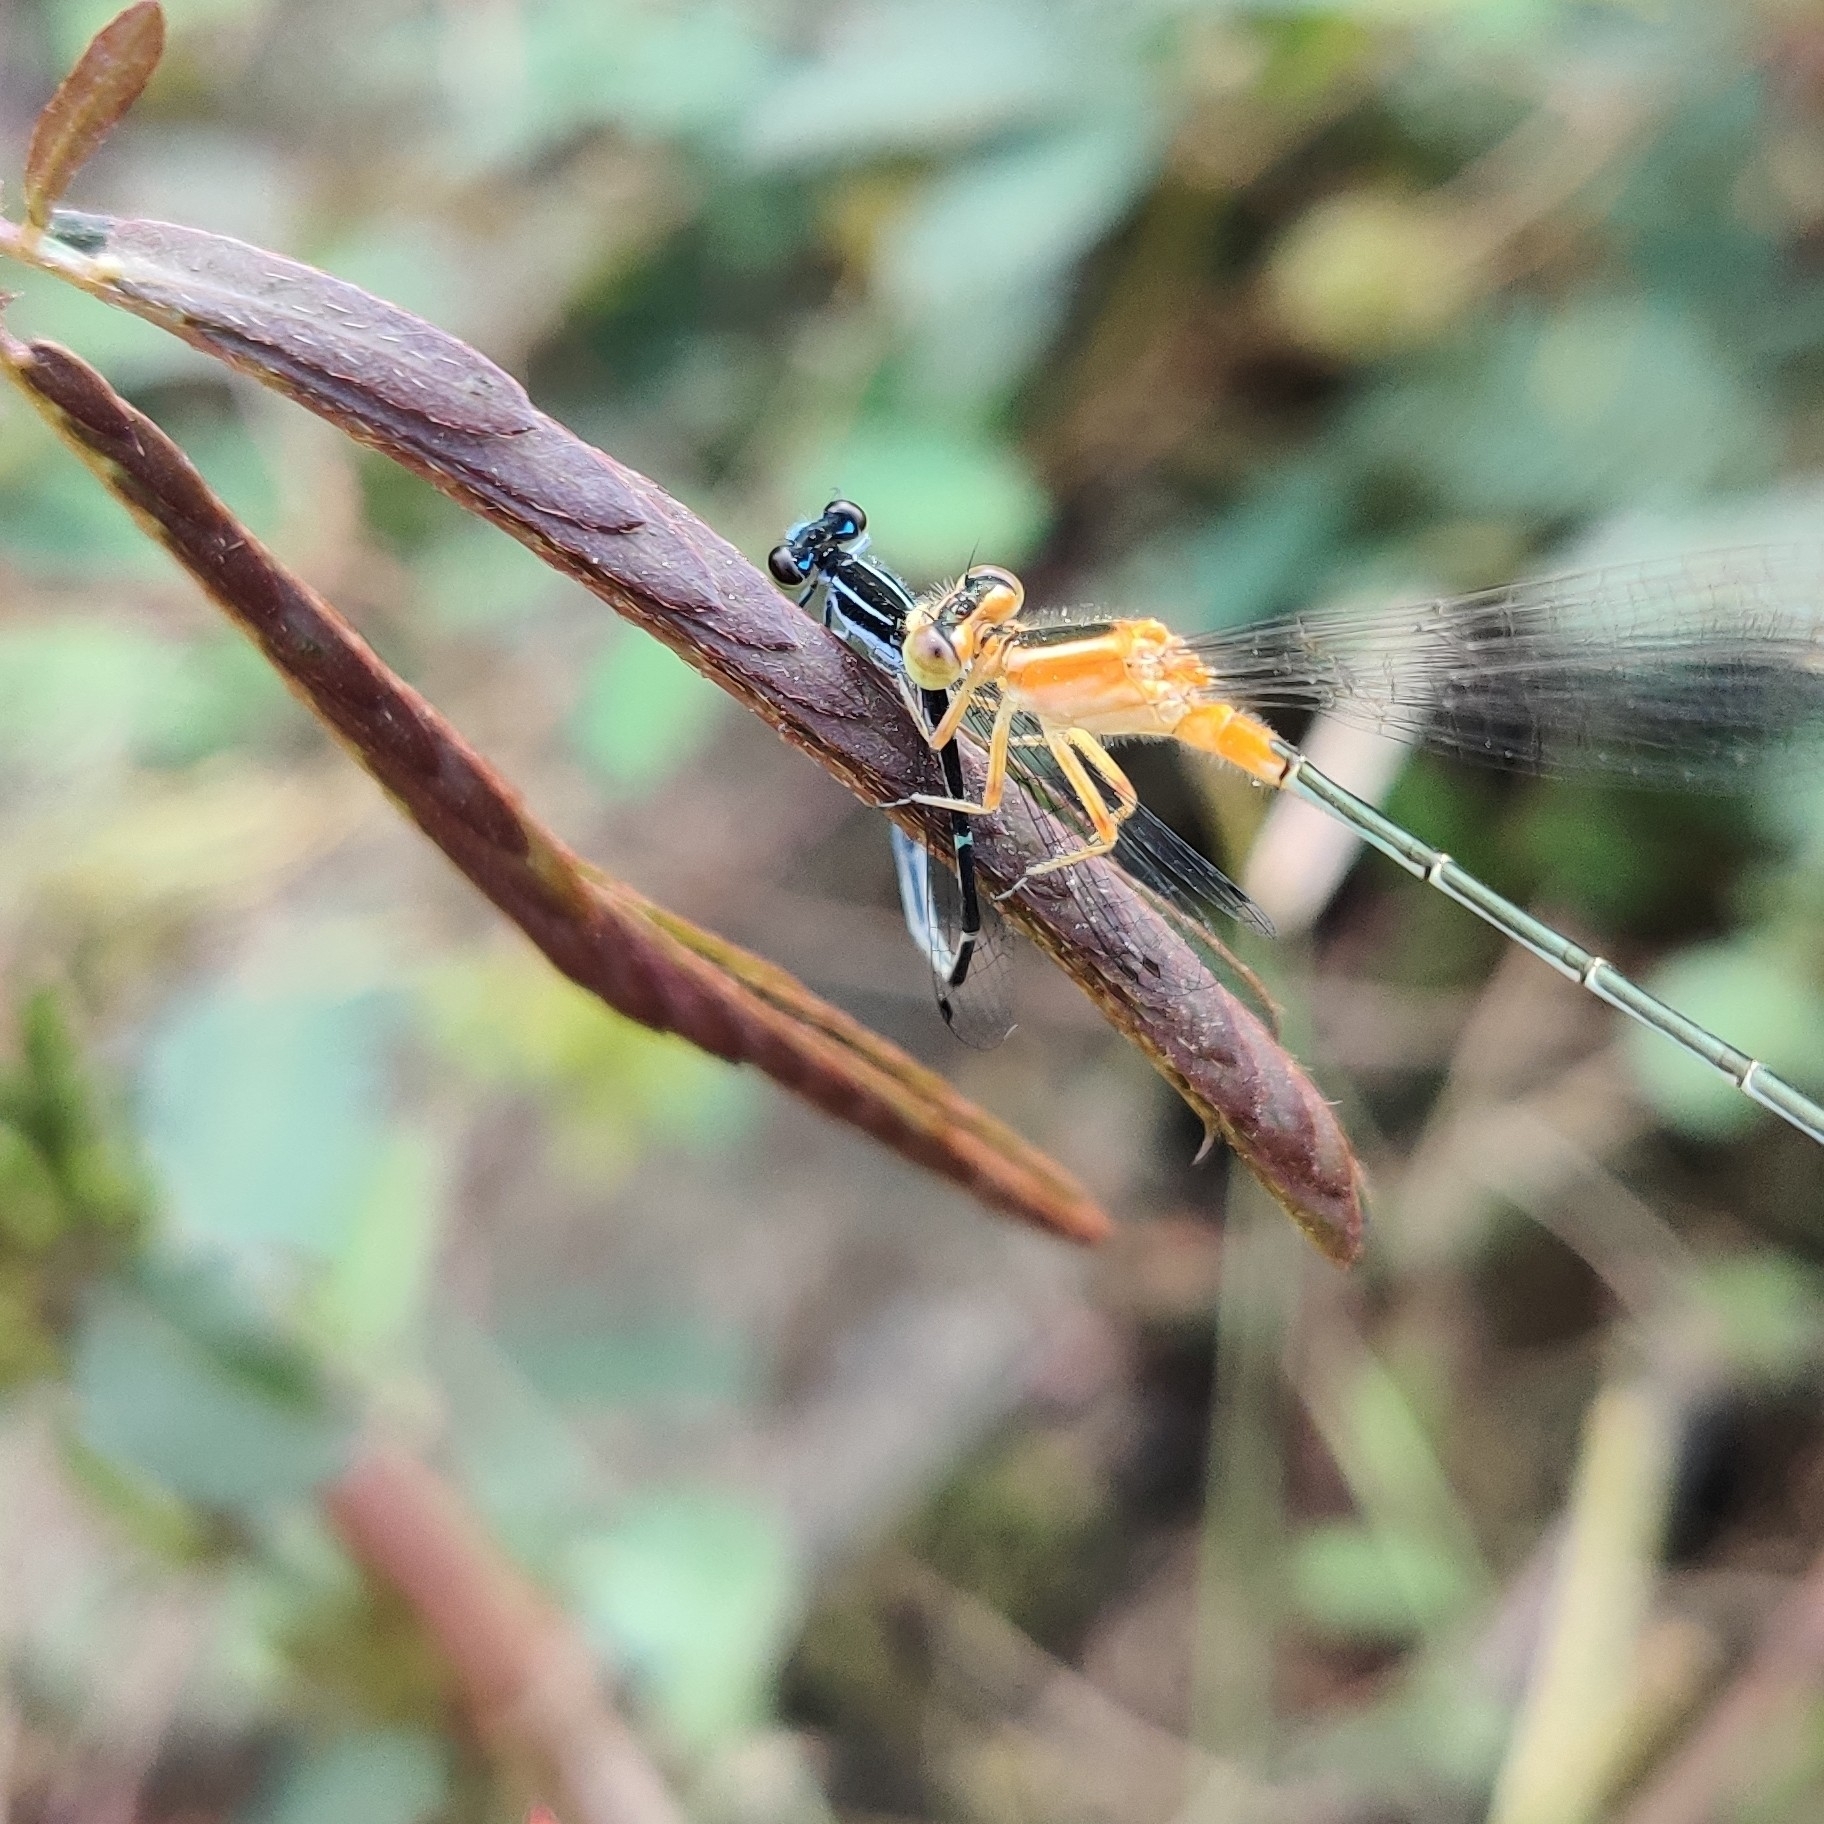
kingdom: Animalia
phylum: Arthropoda
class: Insecta
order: Odonata
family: Coenagrionidae
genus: Ischnura
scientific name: Ischnura senegalensis
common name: Tropical bluetail
